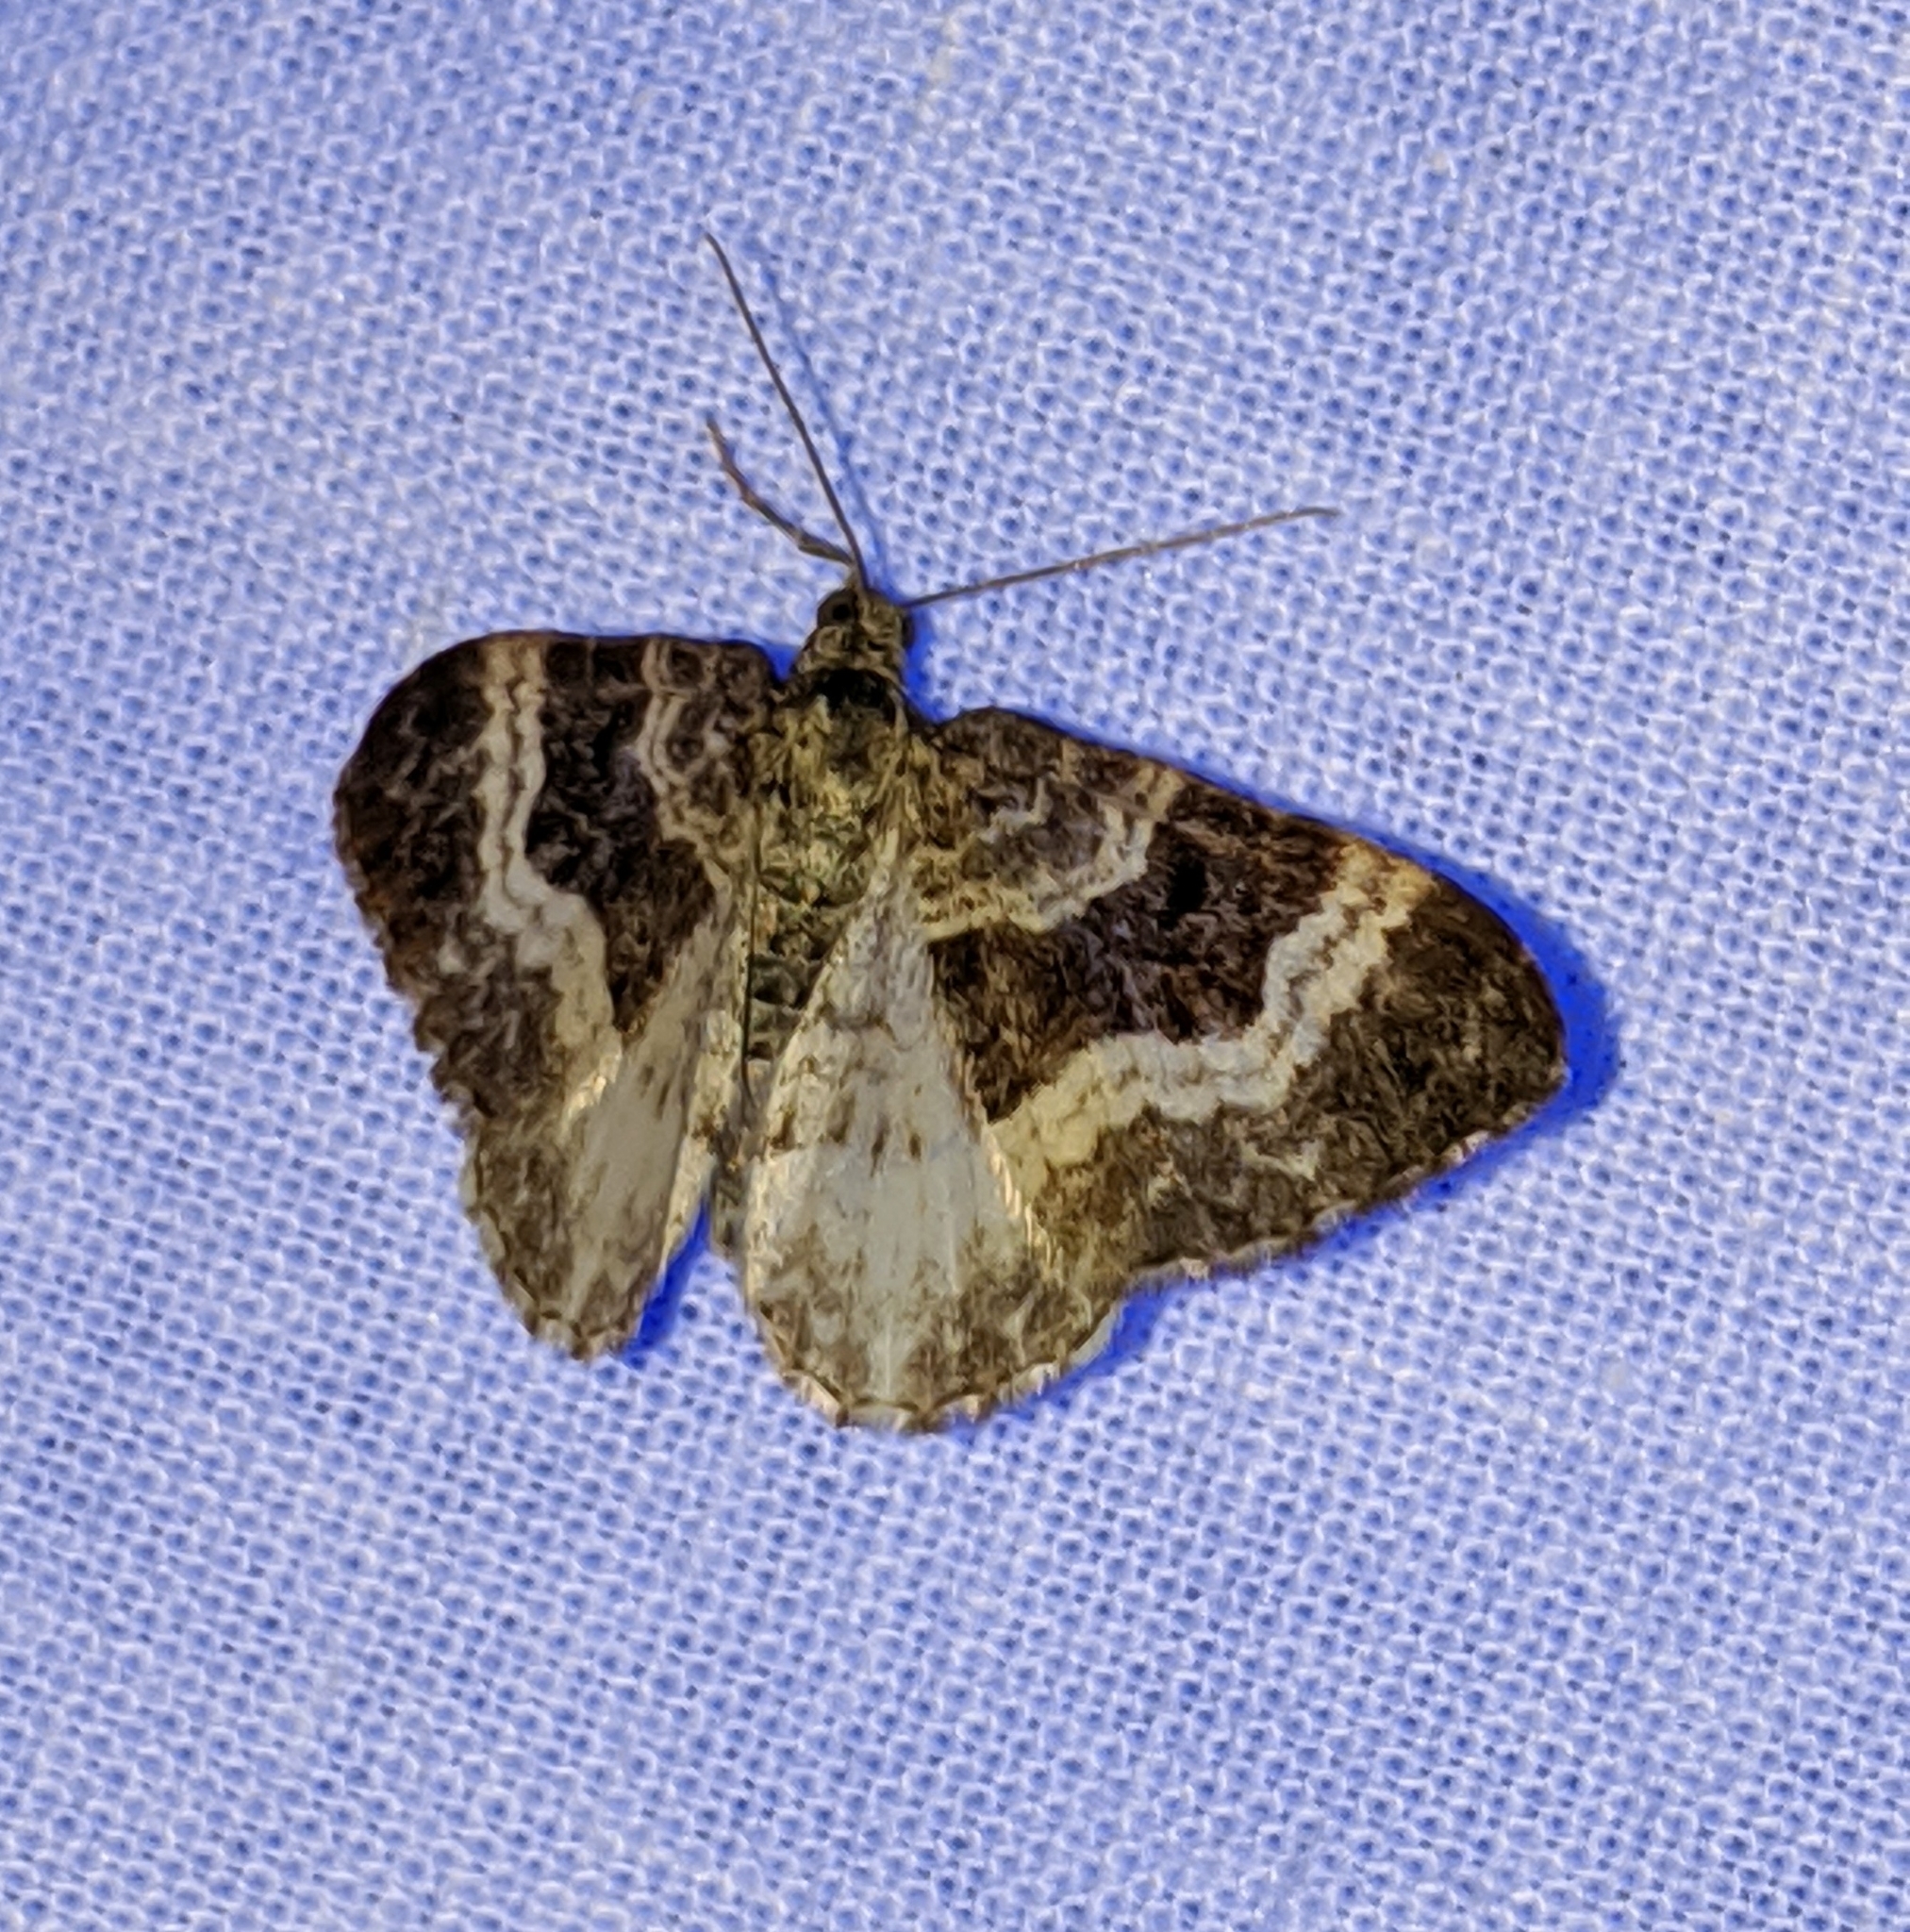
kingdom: Animalia
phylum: Arthropoda
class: Insecta
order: Lepidoptera
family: Geometridae
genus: Epirrhoe
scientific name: Epirrhoe alternata
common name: Common carpet
